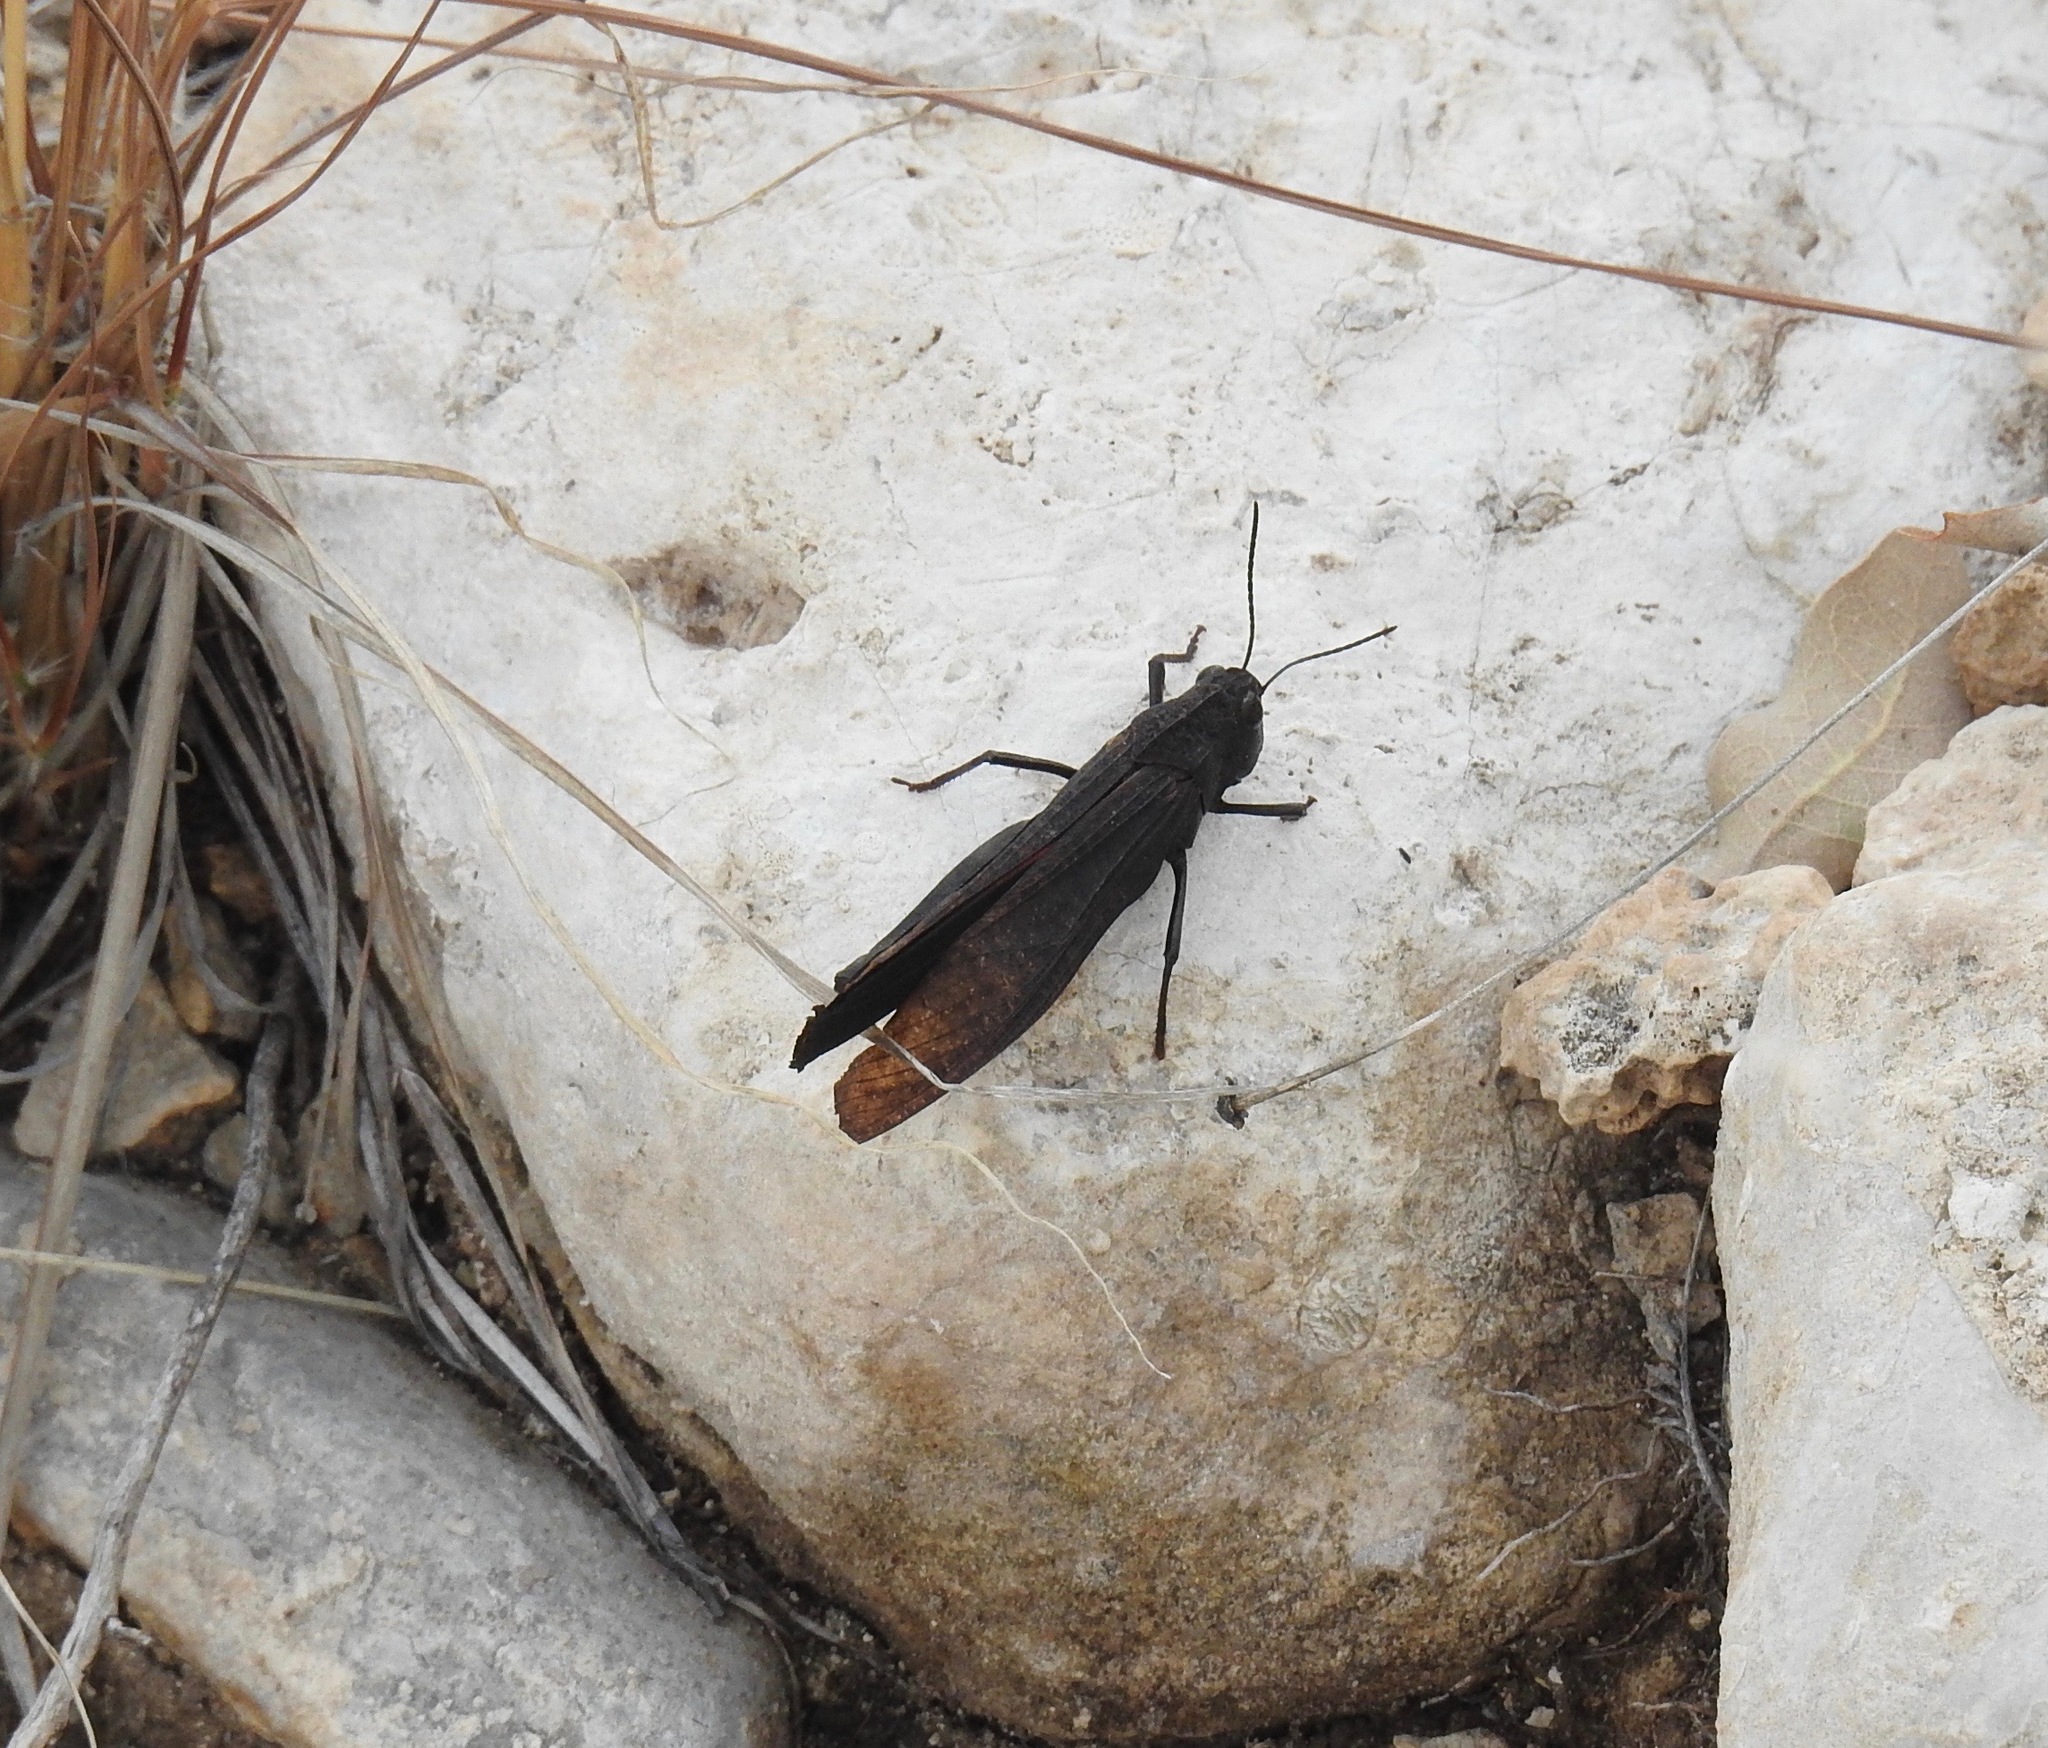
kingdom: Animalia
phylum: Arthropoda
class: Insecta
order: Orthoptera
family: Acrididae
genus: Arphia
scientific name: Arphia pseudo-nietana
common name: Red-winged grasshopper
